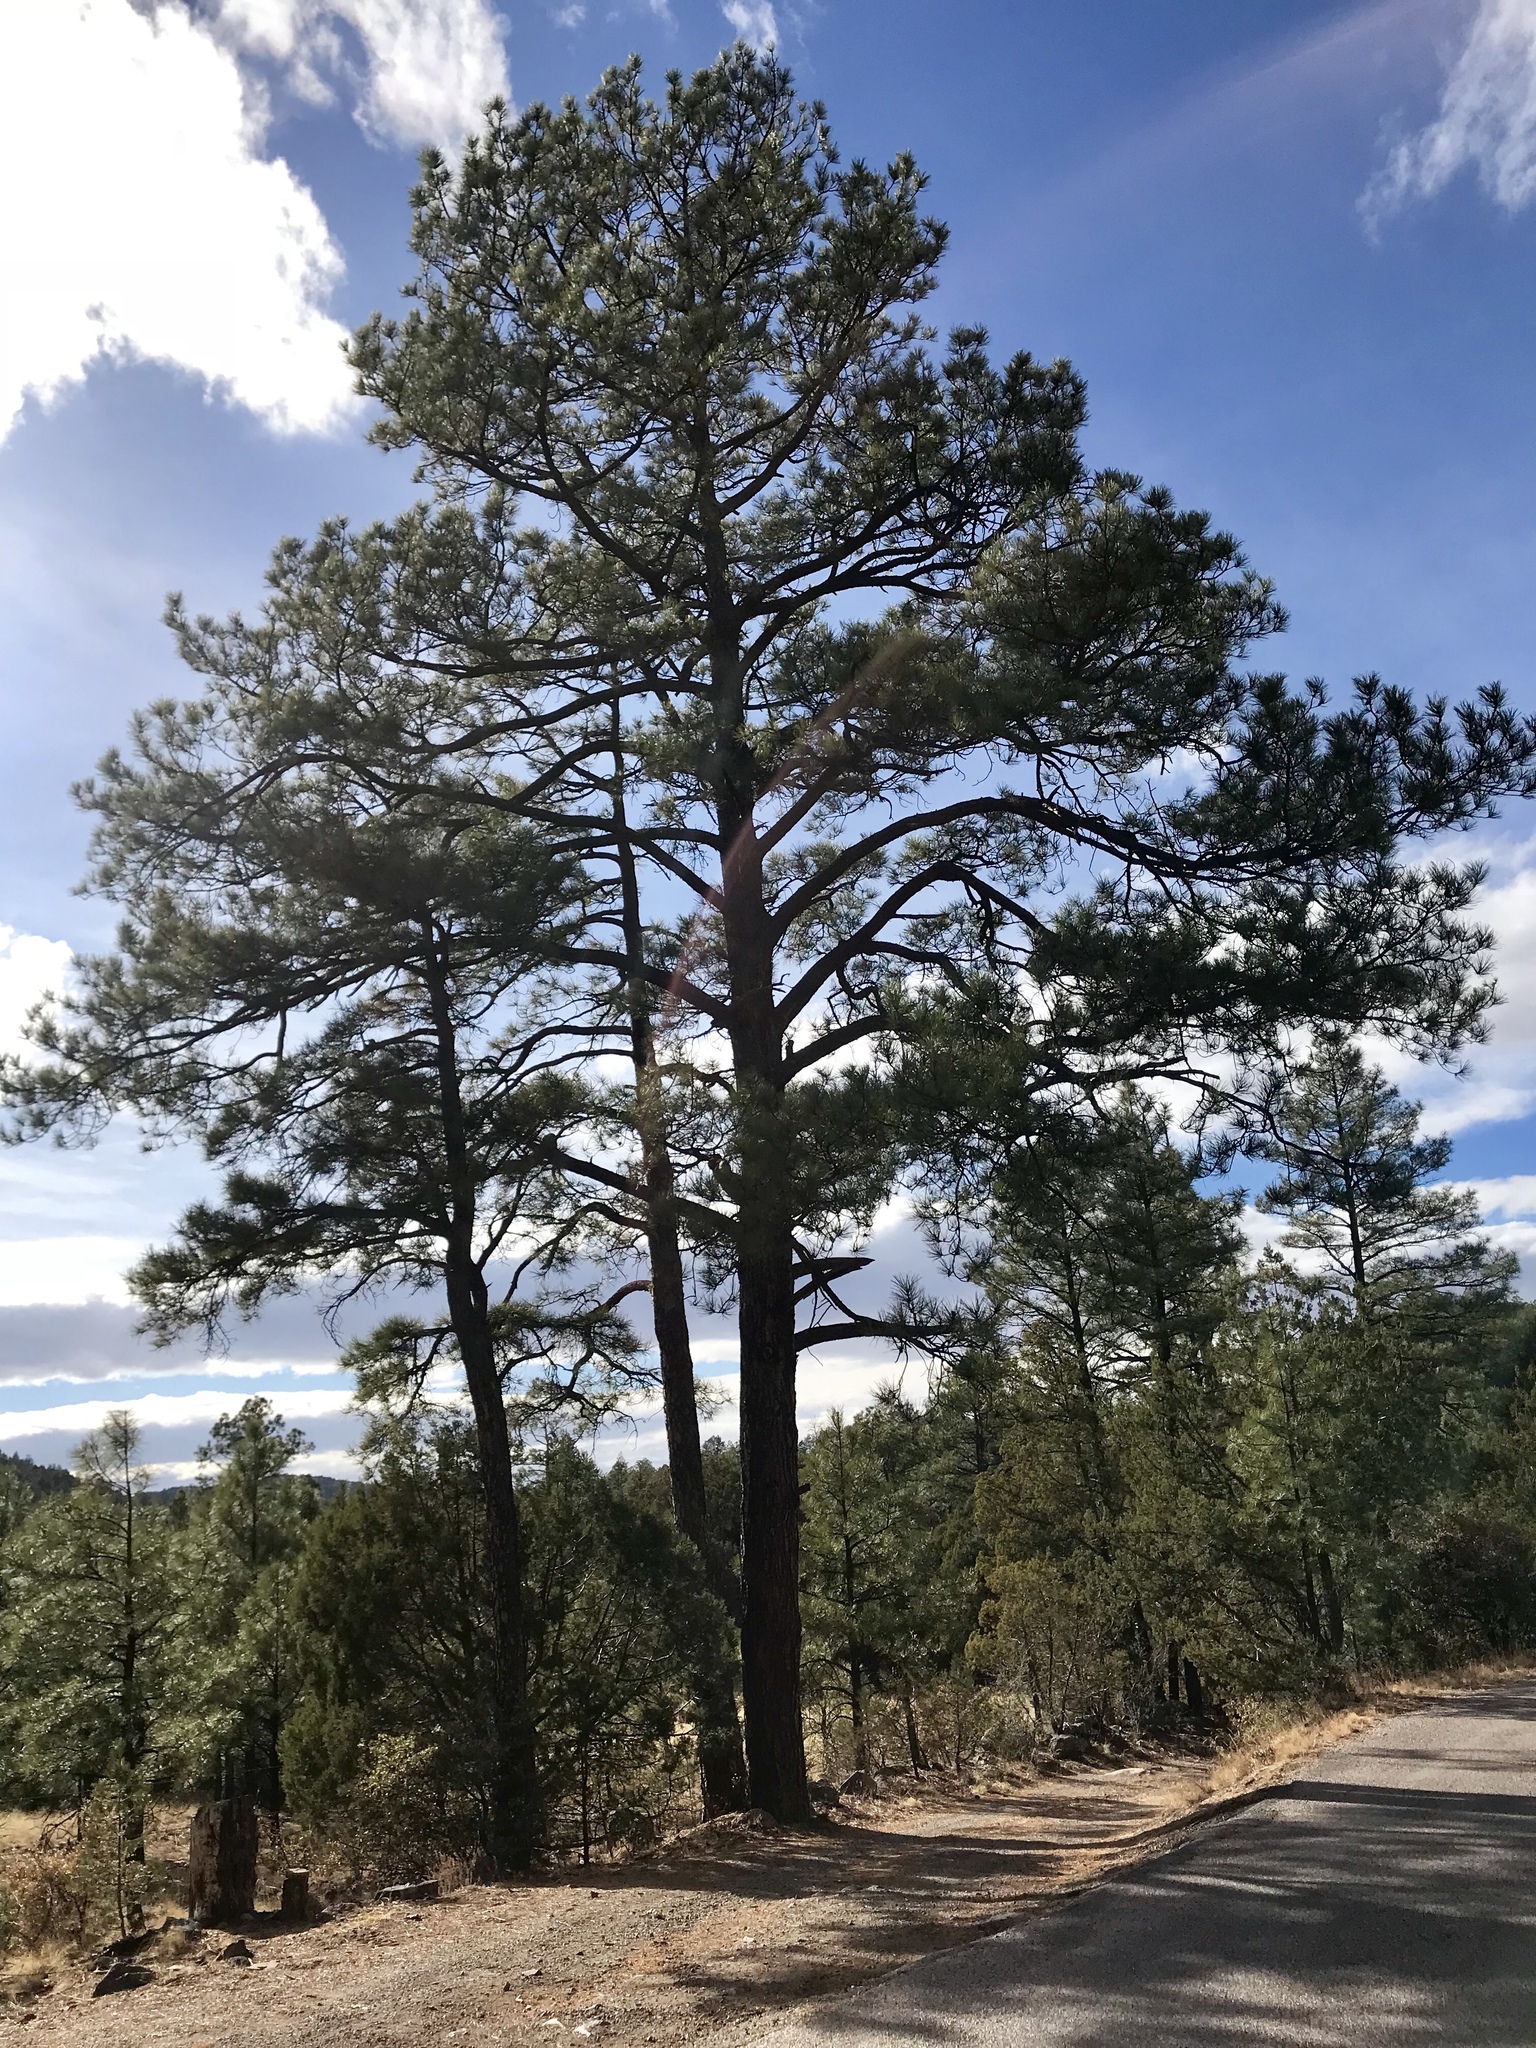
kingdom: Plantae
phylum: Tracheophyta
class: Pinopsida
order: Pinales
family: Pinaceae
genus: Pinus
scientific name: Pinus ponderosa
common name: Western yellow-pine
